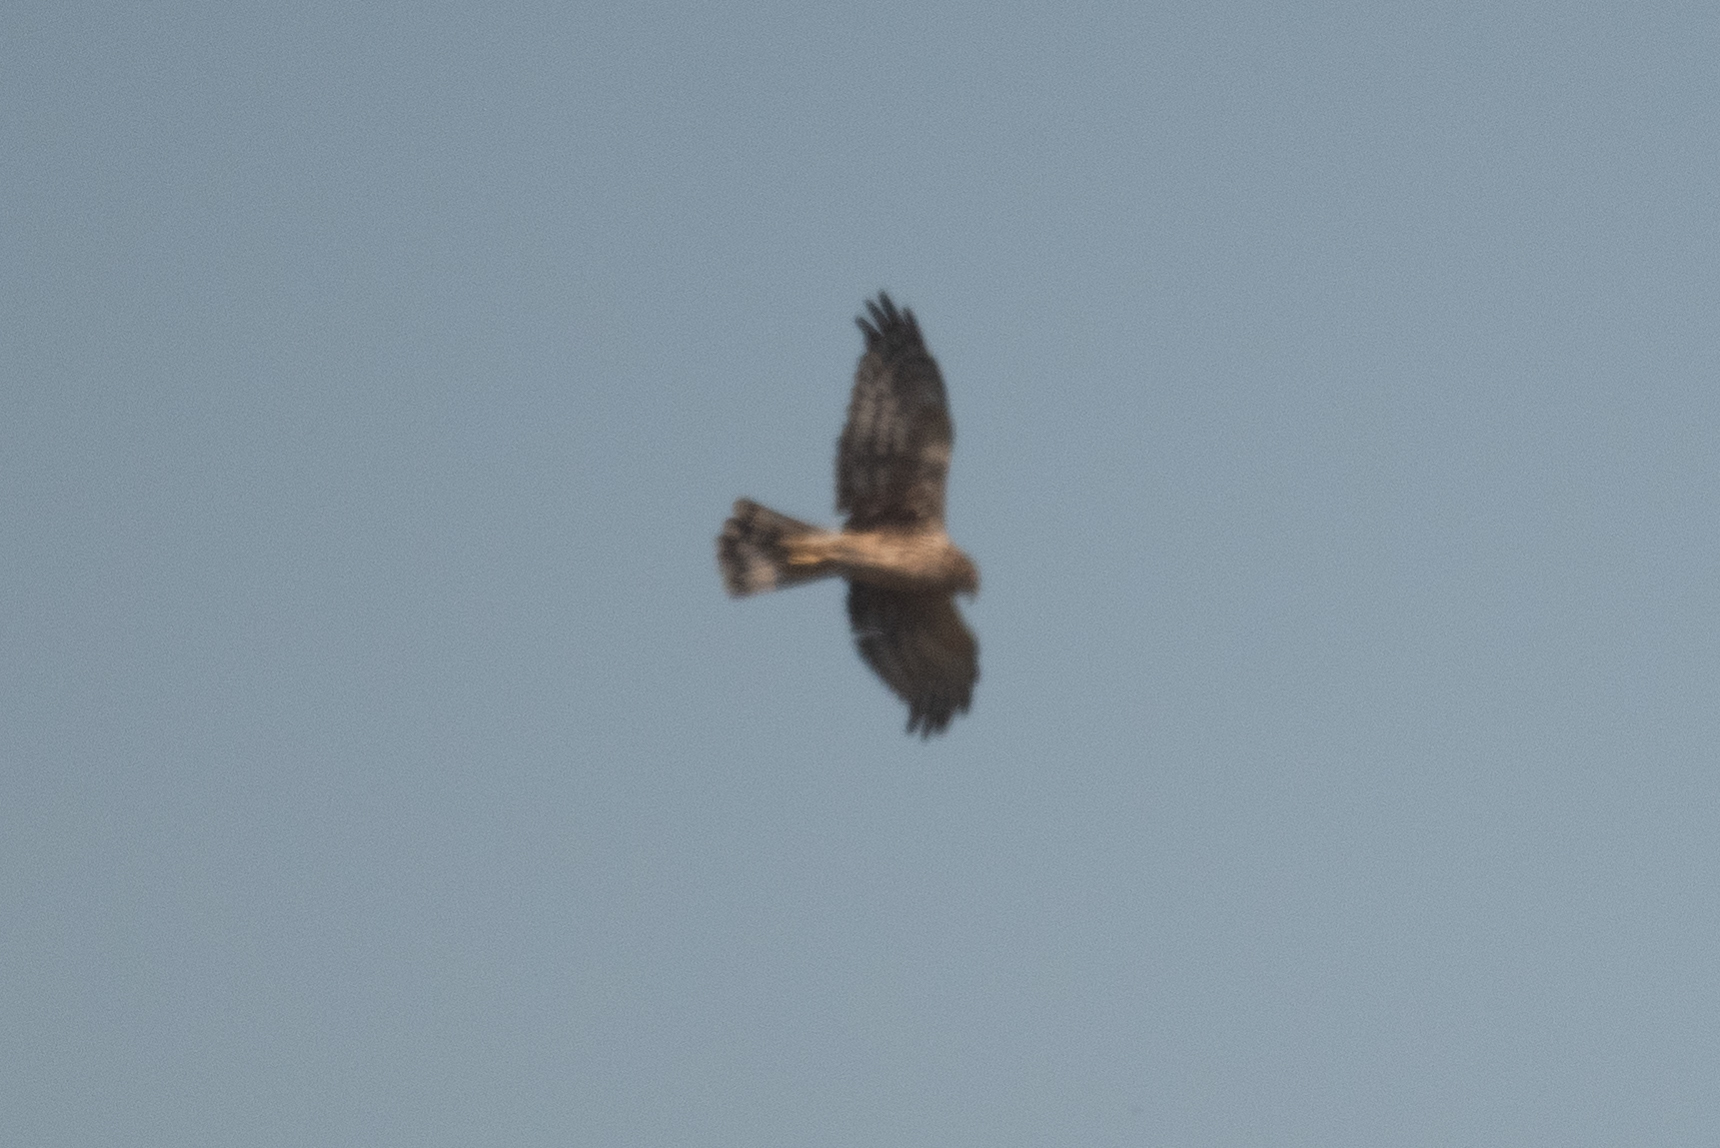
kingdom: Animalia
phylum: Chordata
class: Aves
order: Accipitriformes
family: Accipitridae
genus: Circus
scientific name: Circus cyaneus
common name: Hen harrier
